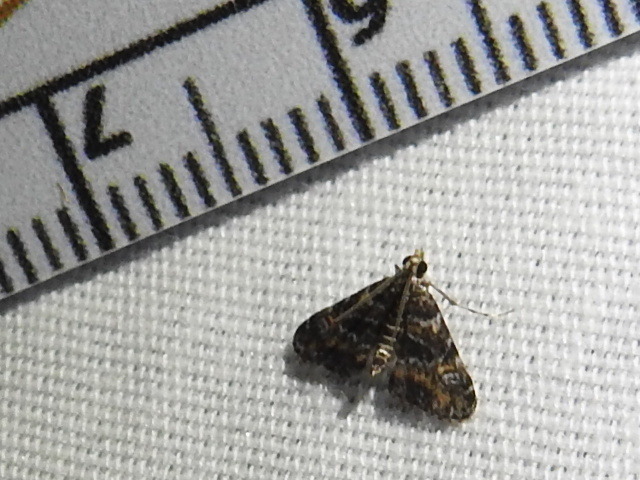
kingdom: Animalia
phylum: Arthropoda
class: Insecta
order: Lepidoptera
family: Crambidae
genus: Elophila
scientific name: Elophila obliteralis
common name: Waterlily leafcutter moth
